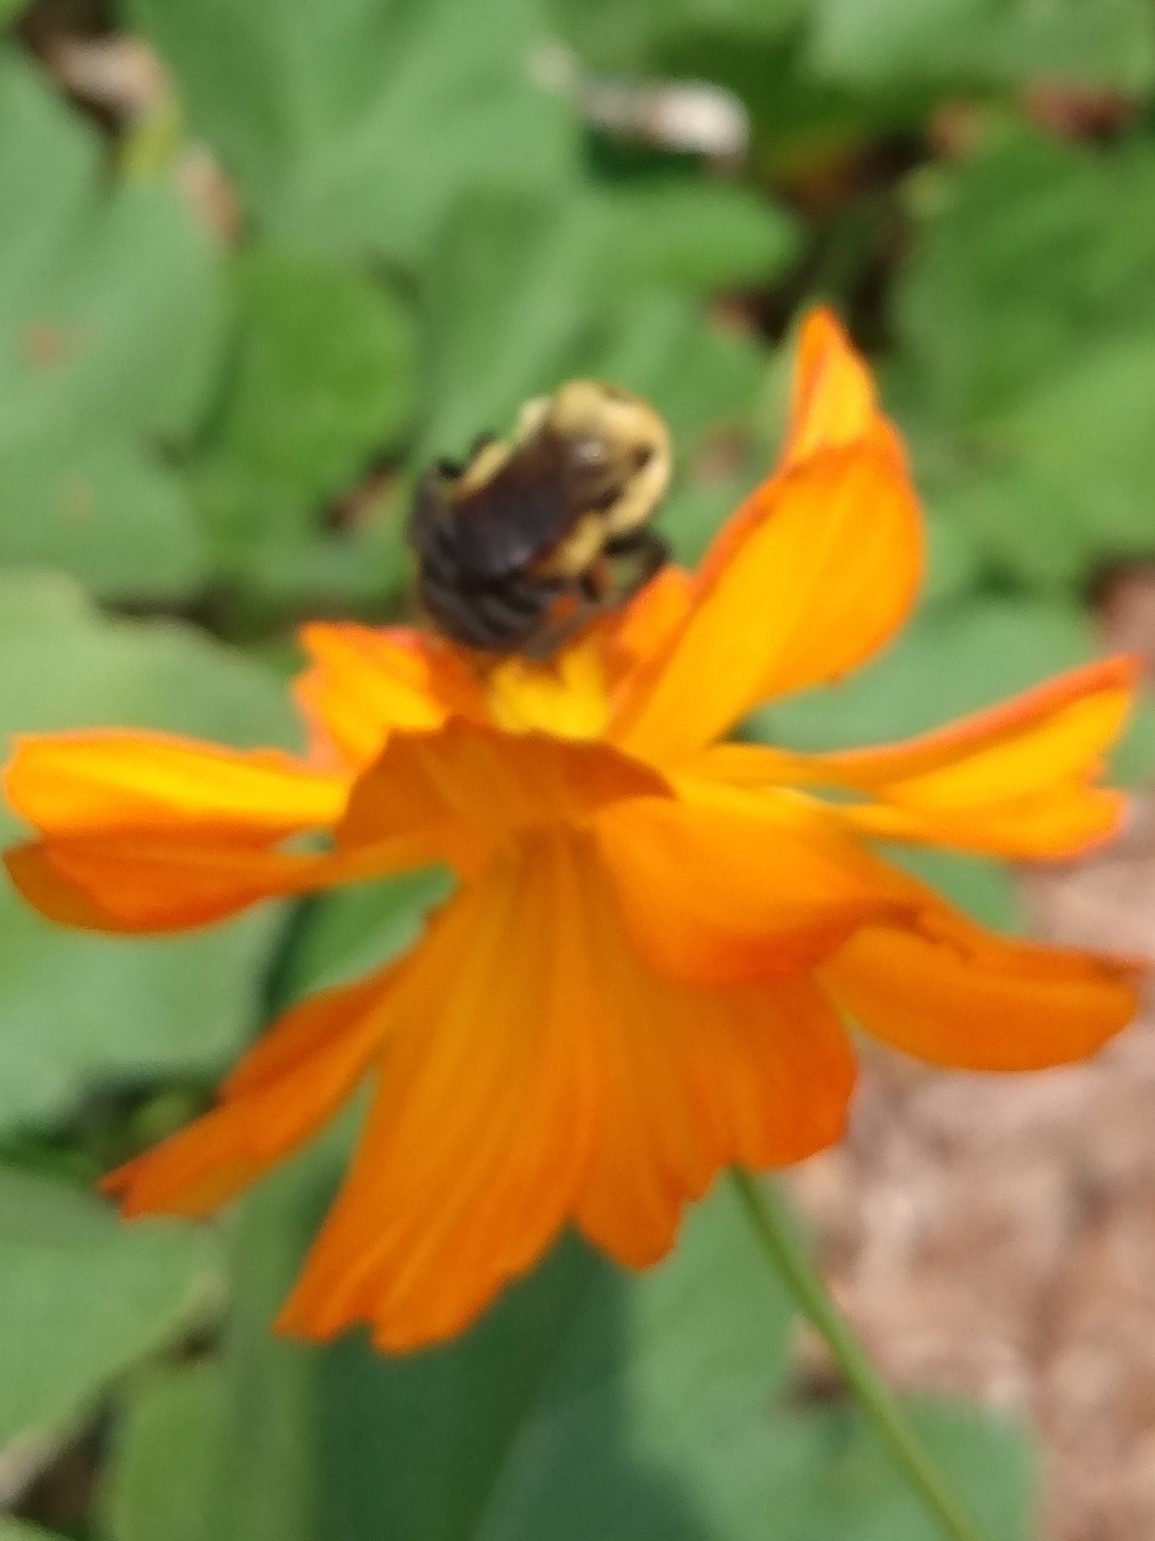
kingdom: Animalia
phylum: Arthropoda
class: Insecta
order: Hymenoptera
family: Apidae
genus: Bombus
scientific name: Bombus griseocollis
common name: Brown-belted bumble bee
